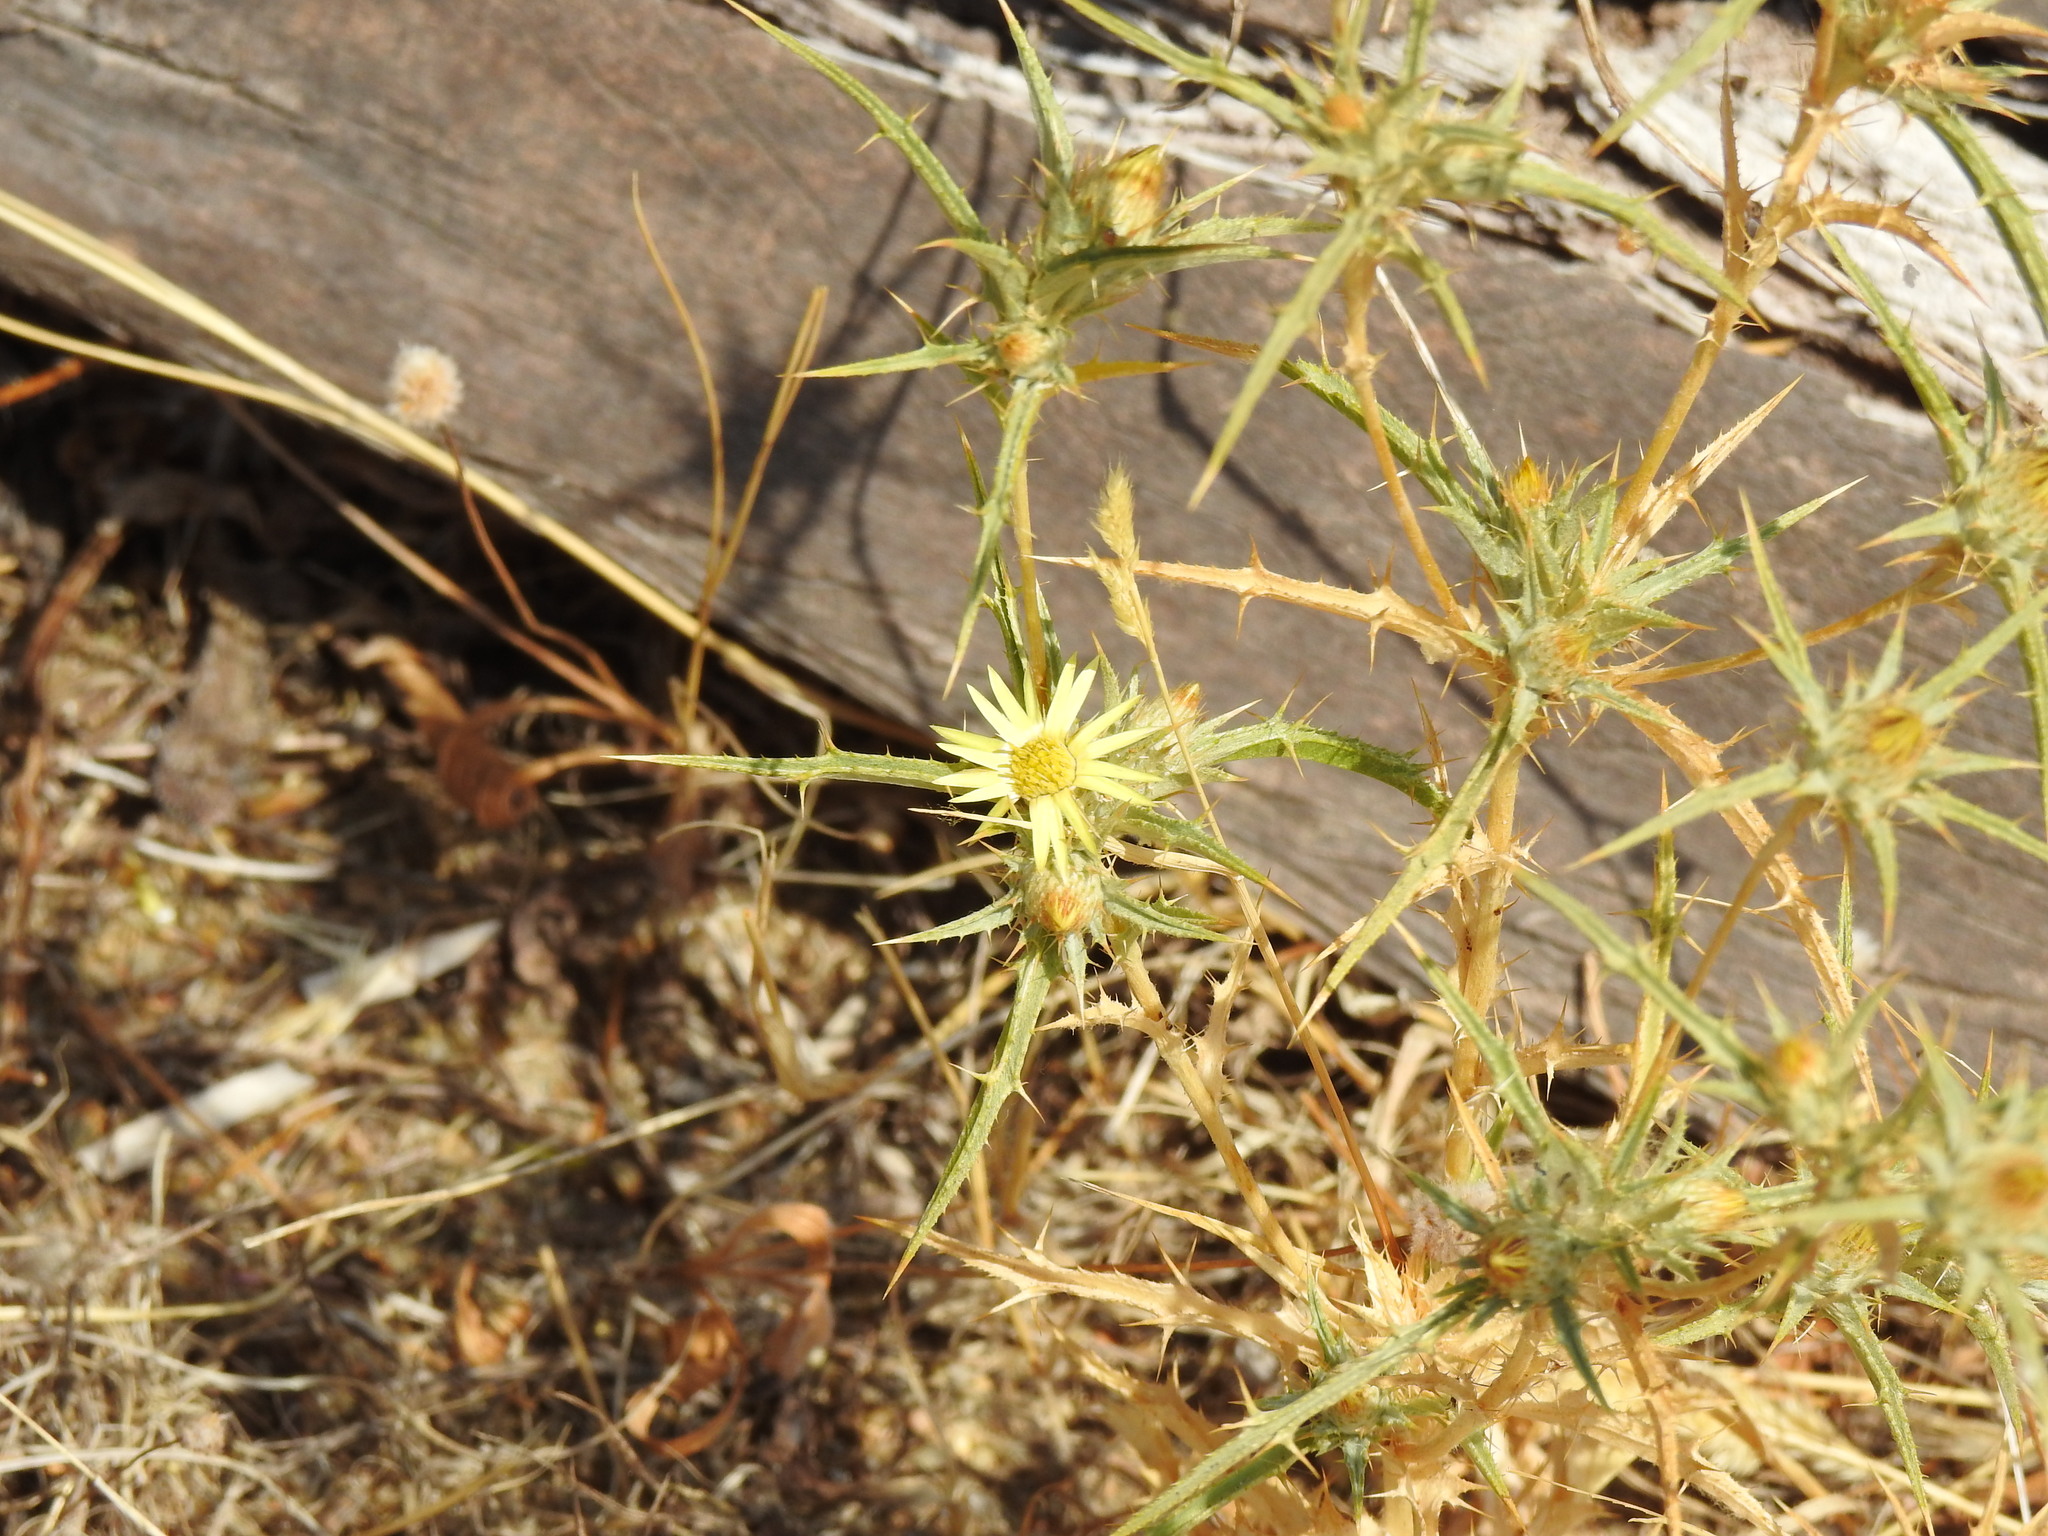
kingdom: Plantae
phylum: Tracheophyta
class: Magnoliopsida
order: Asterales
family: Asteraceae
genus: Carlina
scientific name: Carlina racemosa
